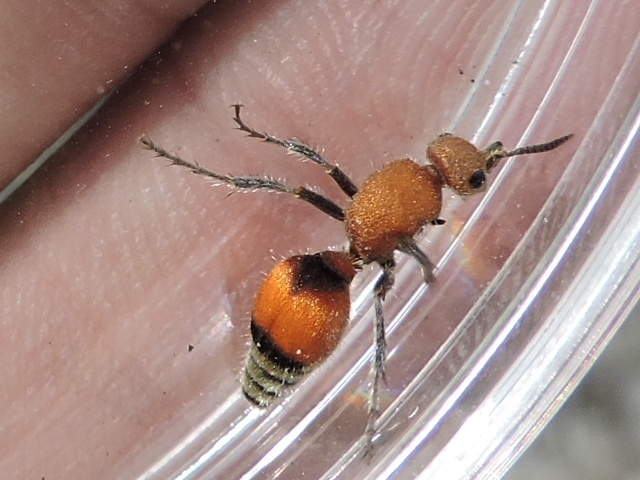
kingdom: Animalia
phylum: Arthropoda
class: Insecta
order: Hymenoptera
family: Mutillidae
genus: Dasymutilla
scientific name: Dasymutilla
